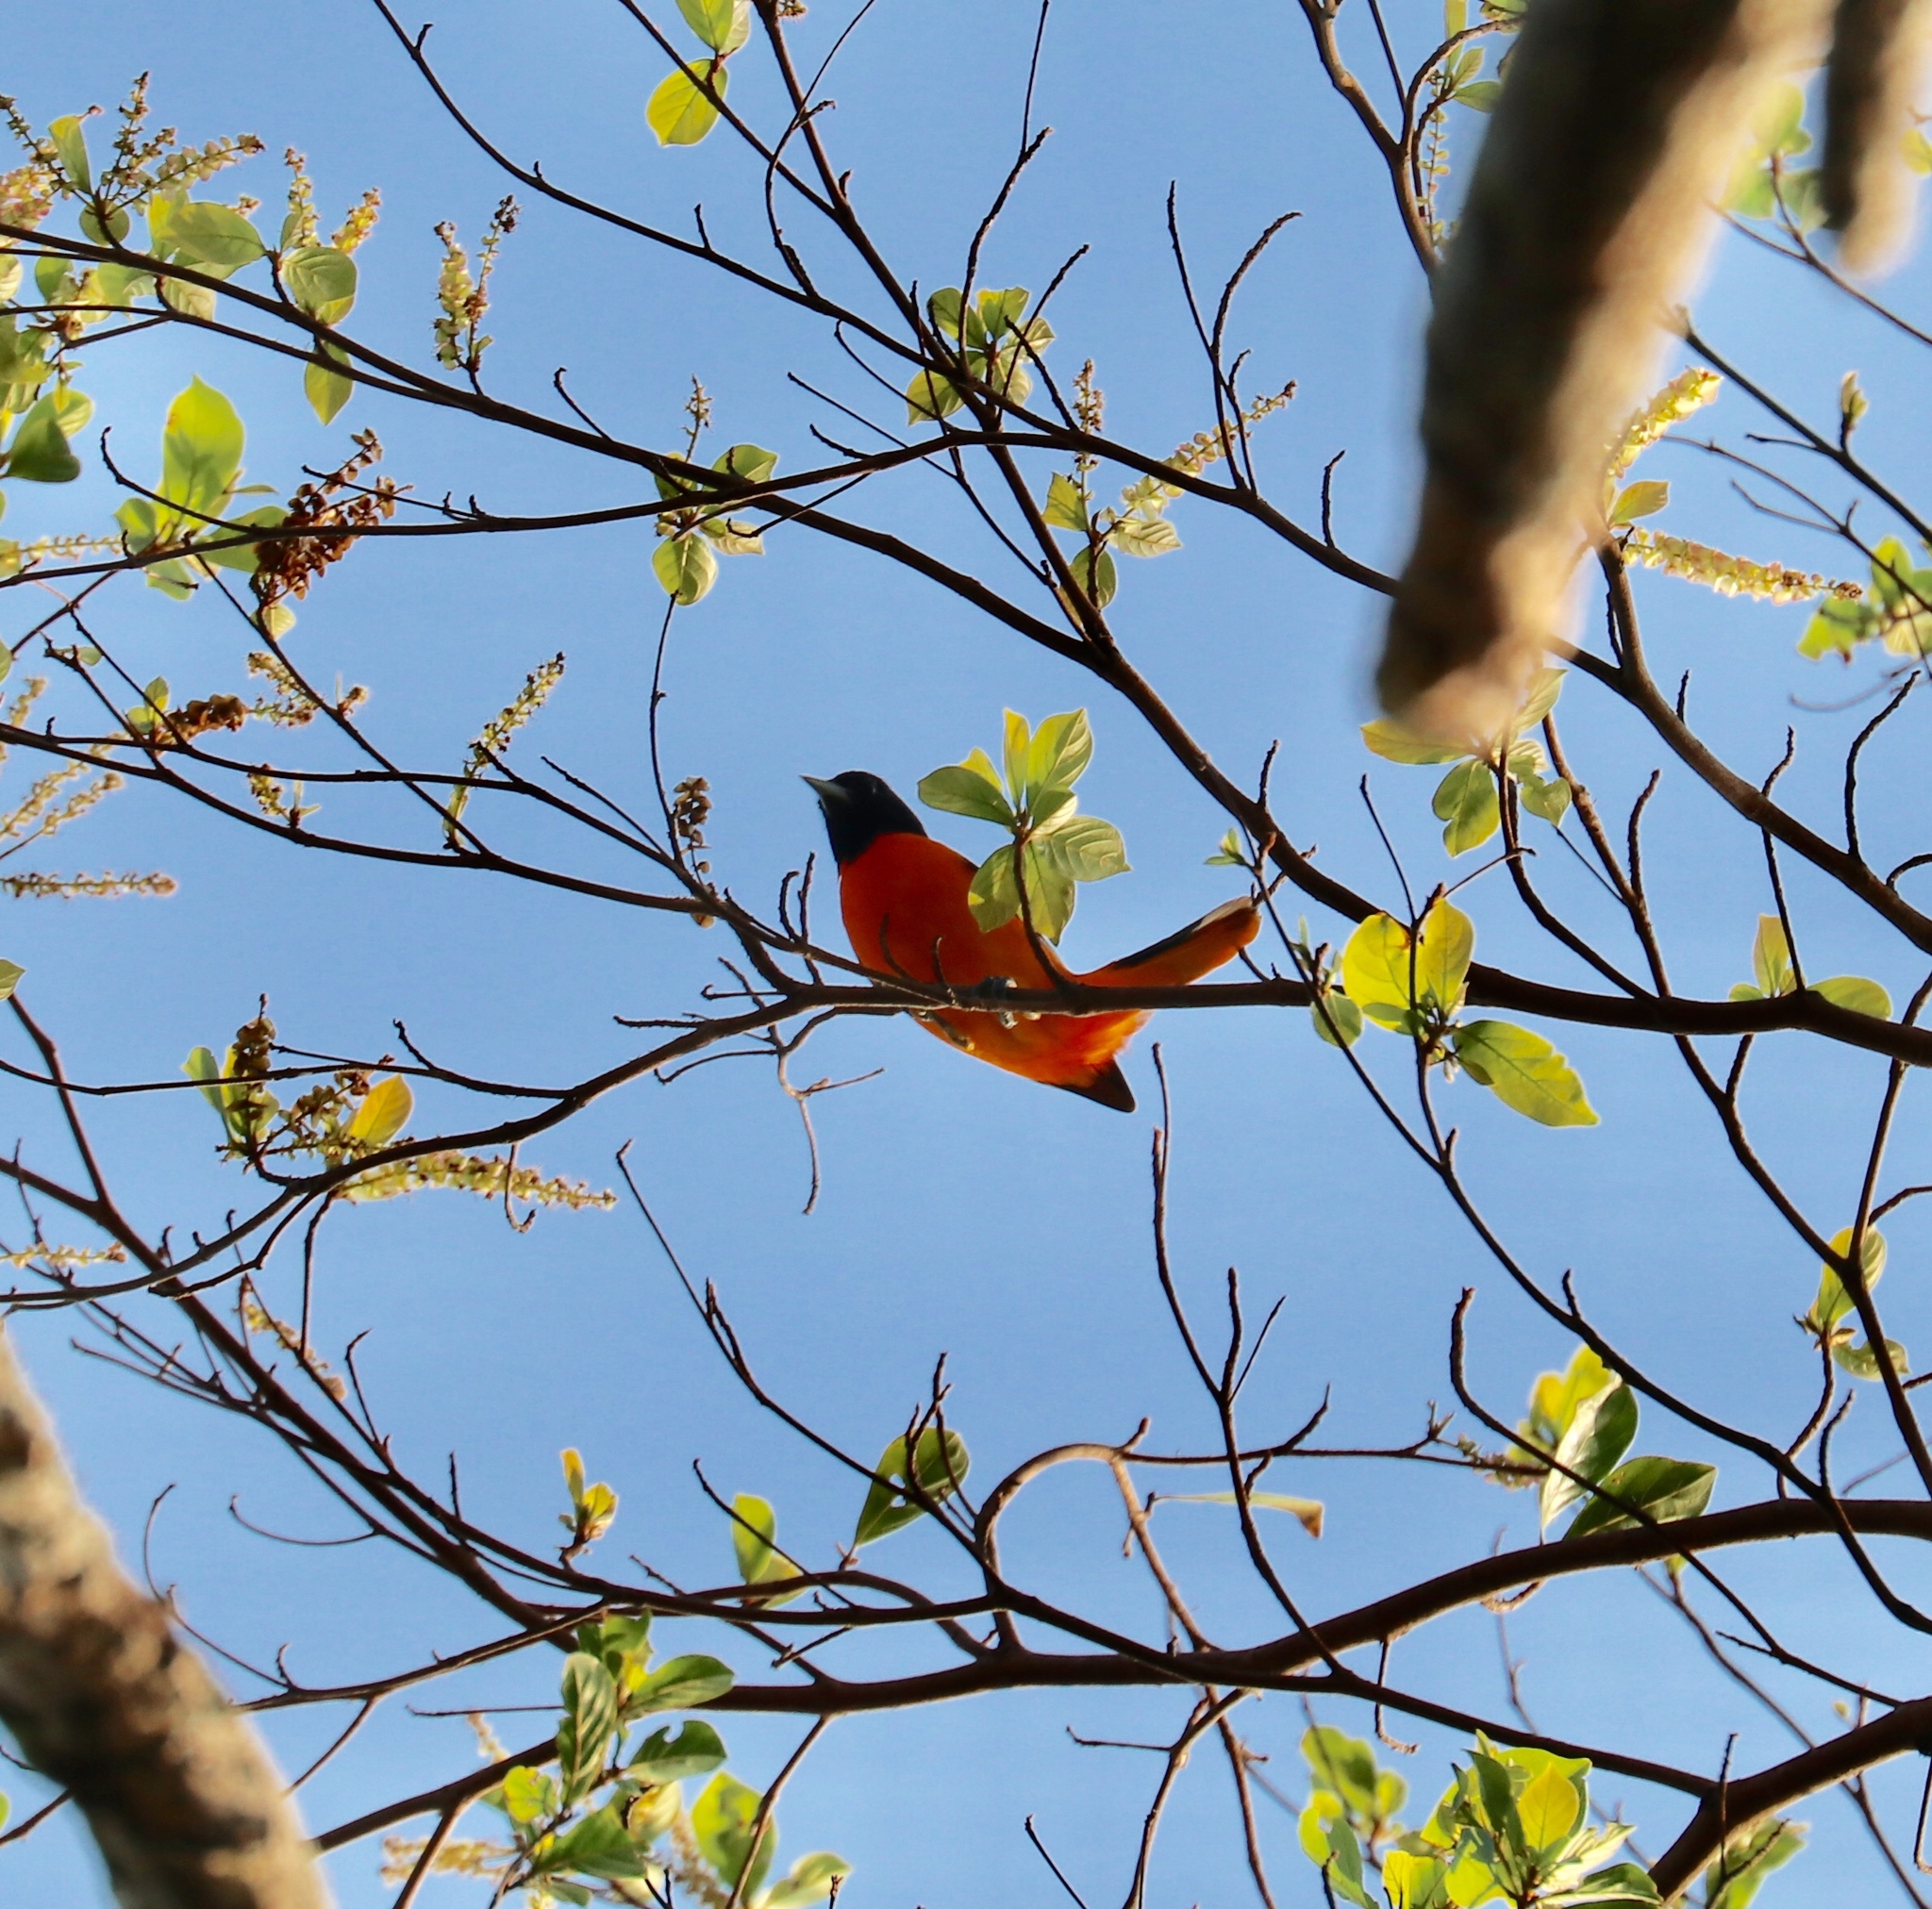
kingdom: Animalia
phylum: Chordata
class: Aves
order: Passeriformes
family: Icteridae
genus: Icterus
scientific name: Icterus galbula
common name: Baltimore oriole
